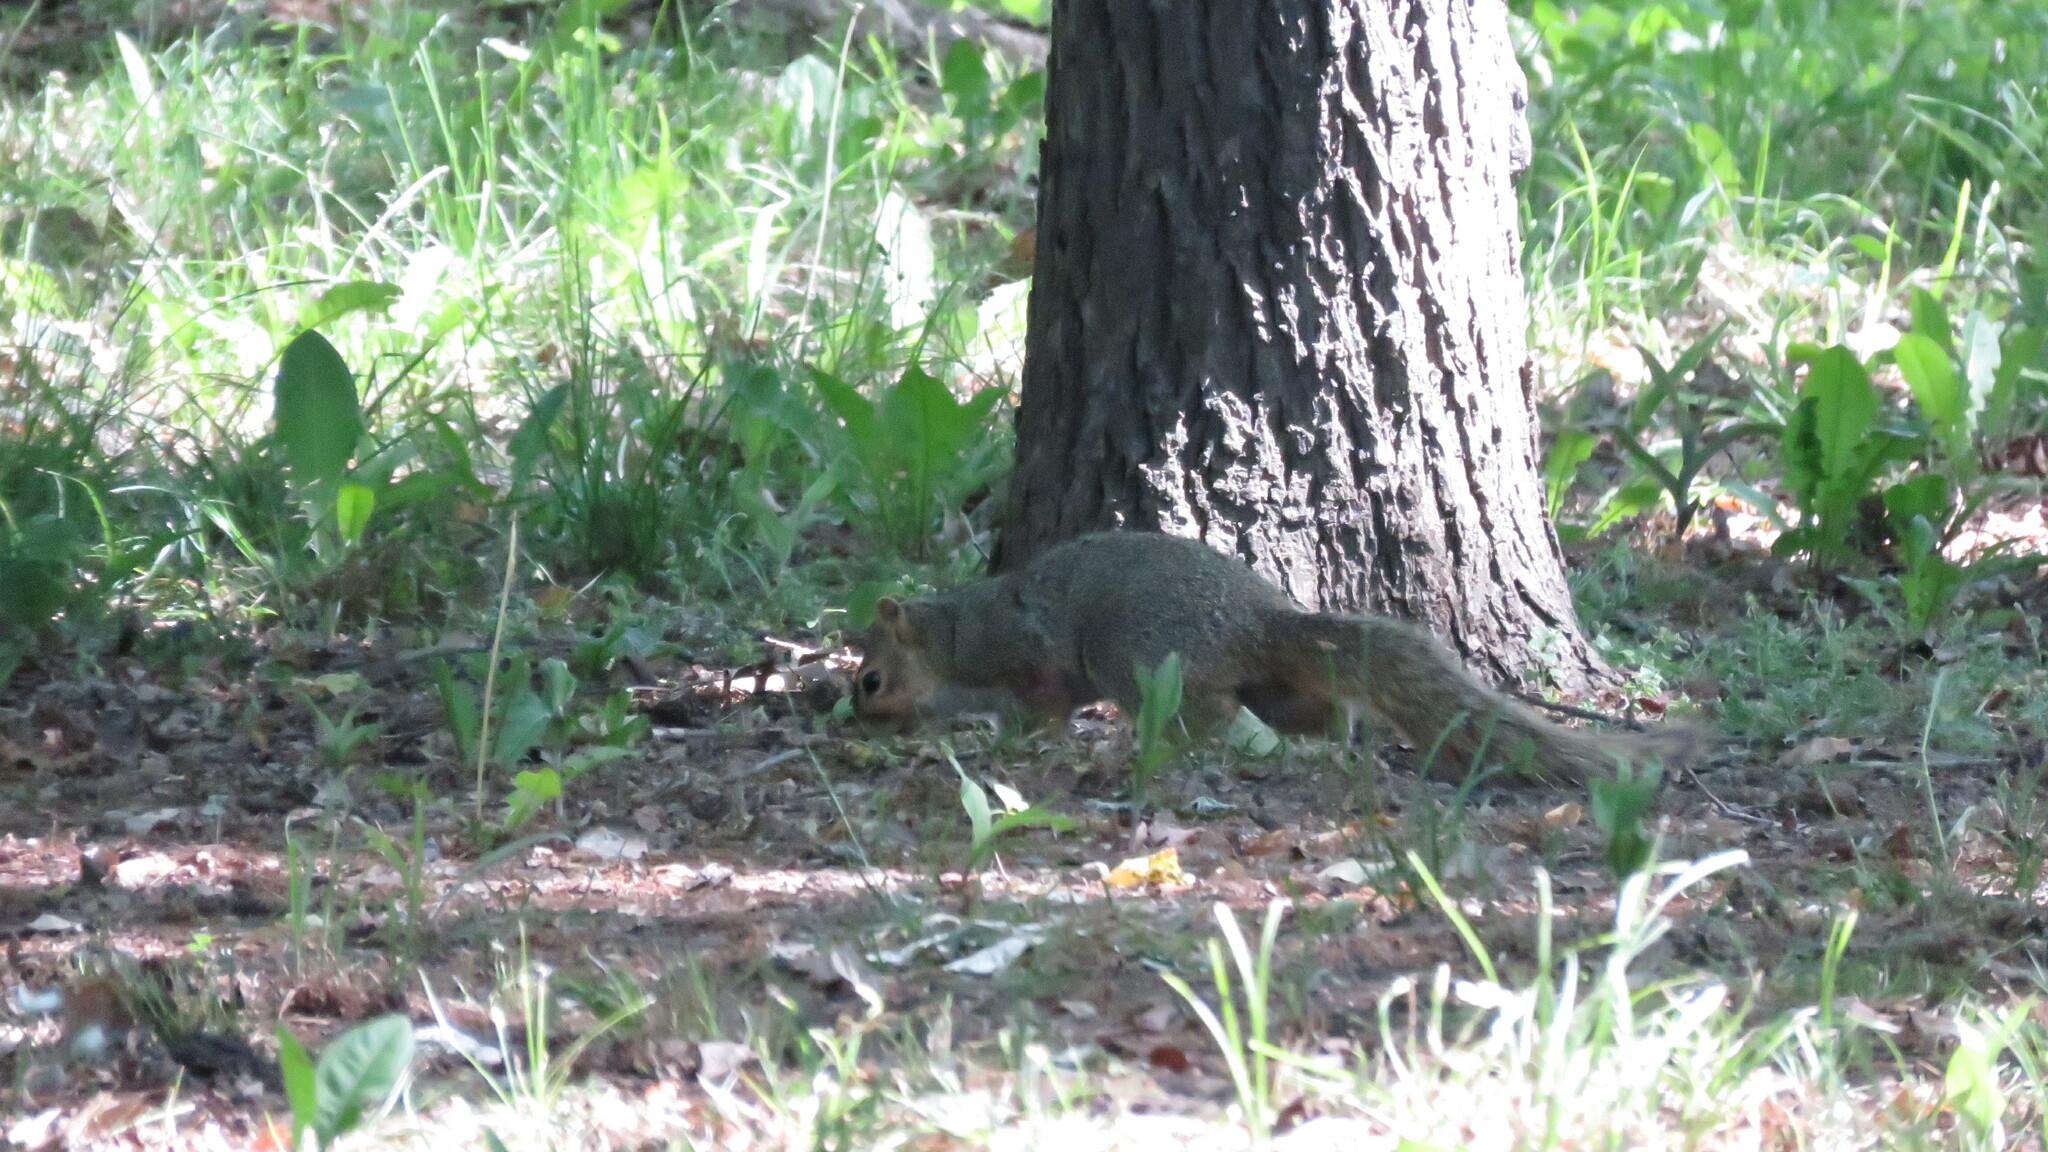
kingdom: Animalia
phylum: Chordata
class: Mammalia
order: Rodentia
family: Sciuridae
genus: Sciurus
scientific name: Sciurus niger
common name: Fox squirrel
